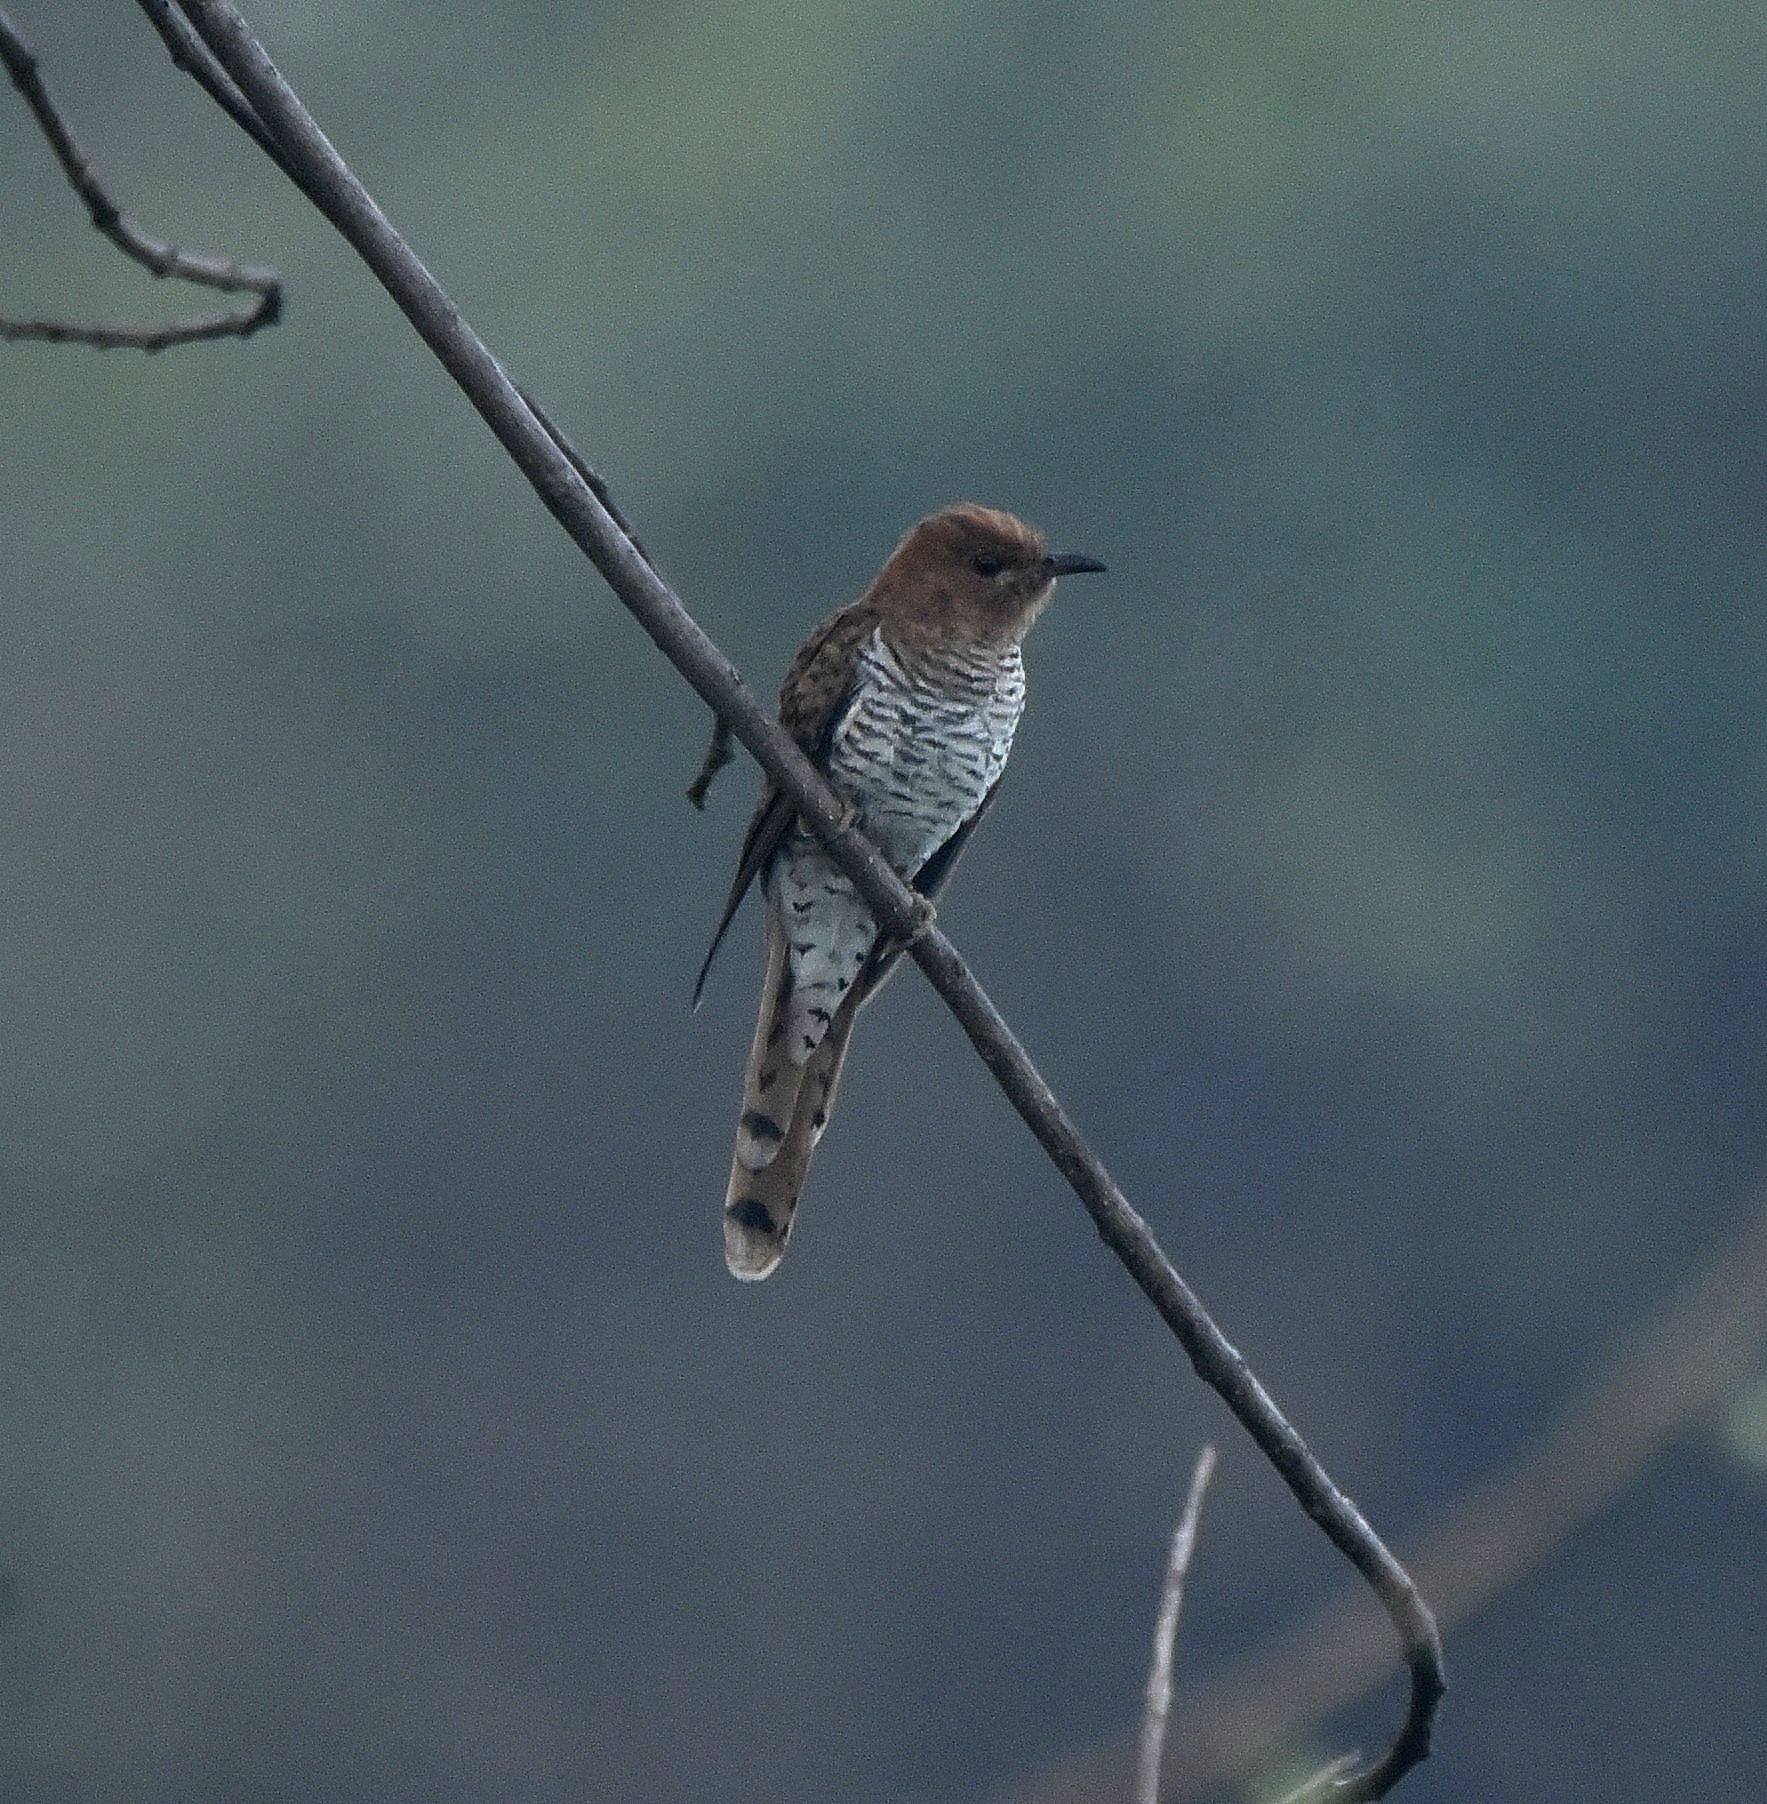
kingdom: Animalia
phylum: Chordata
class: Aves
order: Cuculiformes
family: Cuculidae
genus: Cacomantis
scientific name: Cacomantis passerinus
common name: Grey-bellied cuckoo
